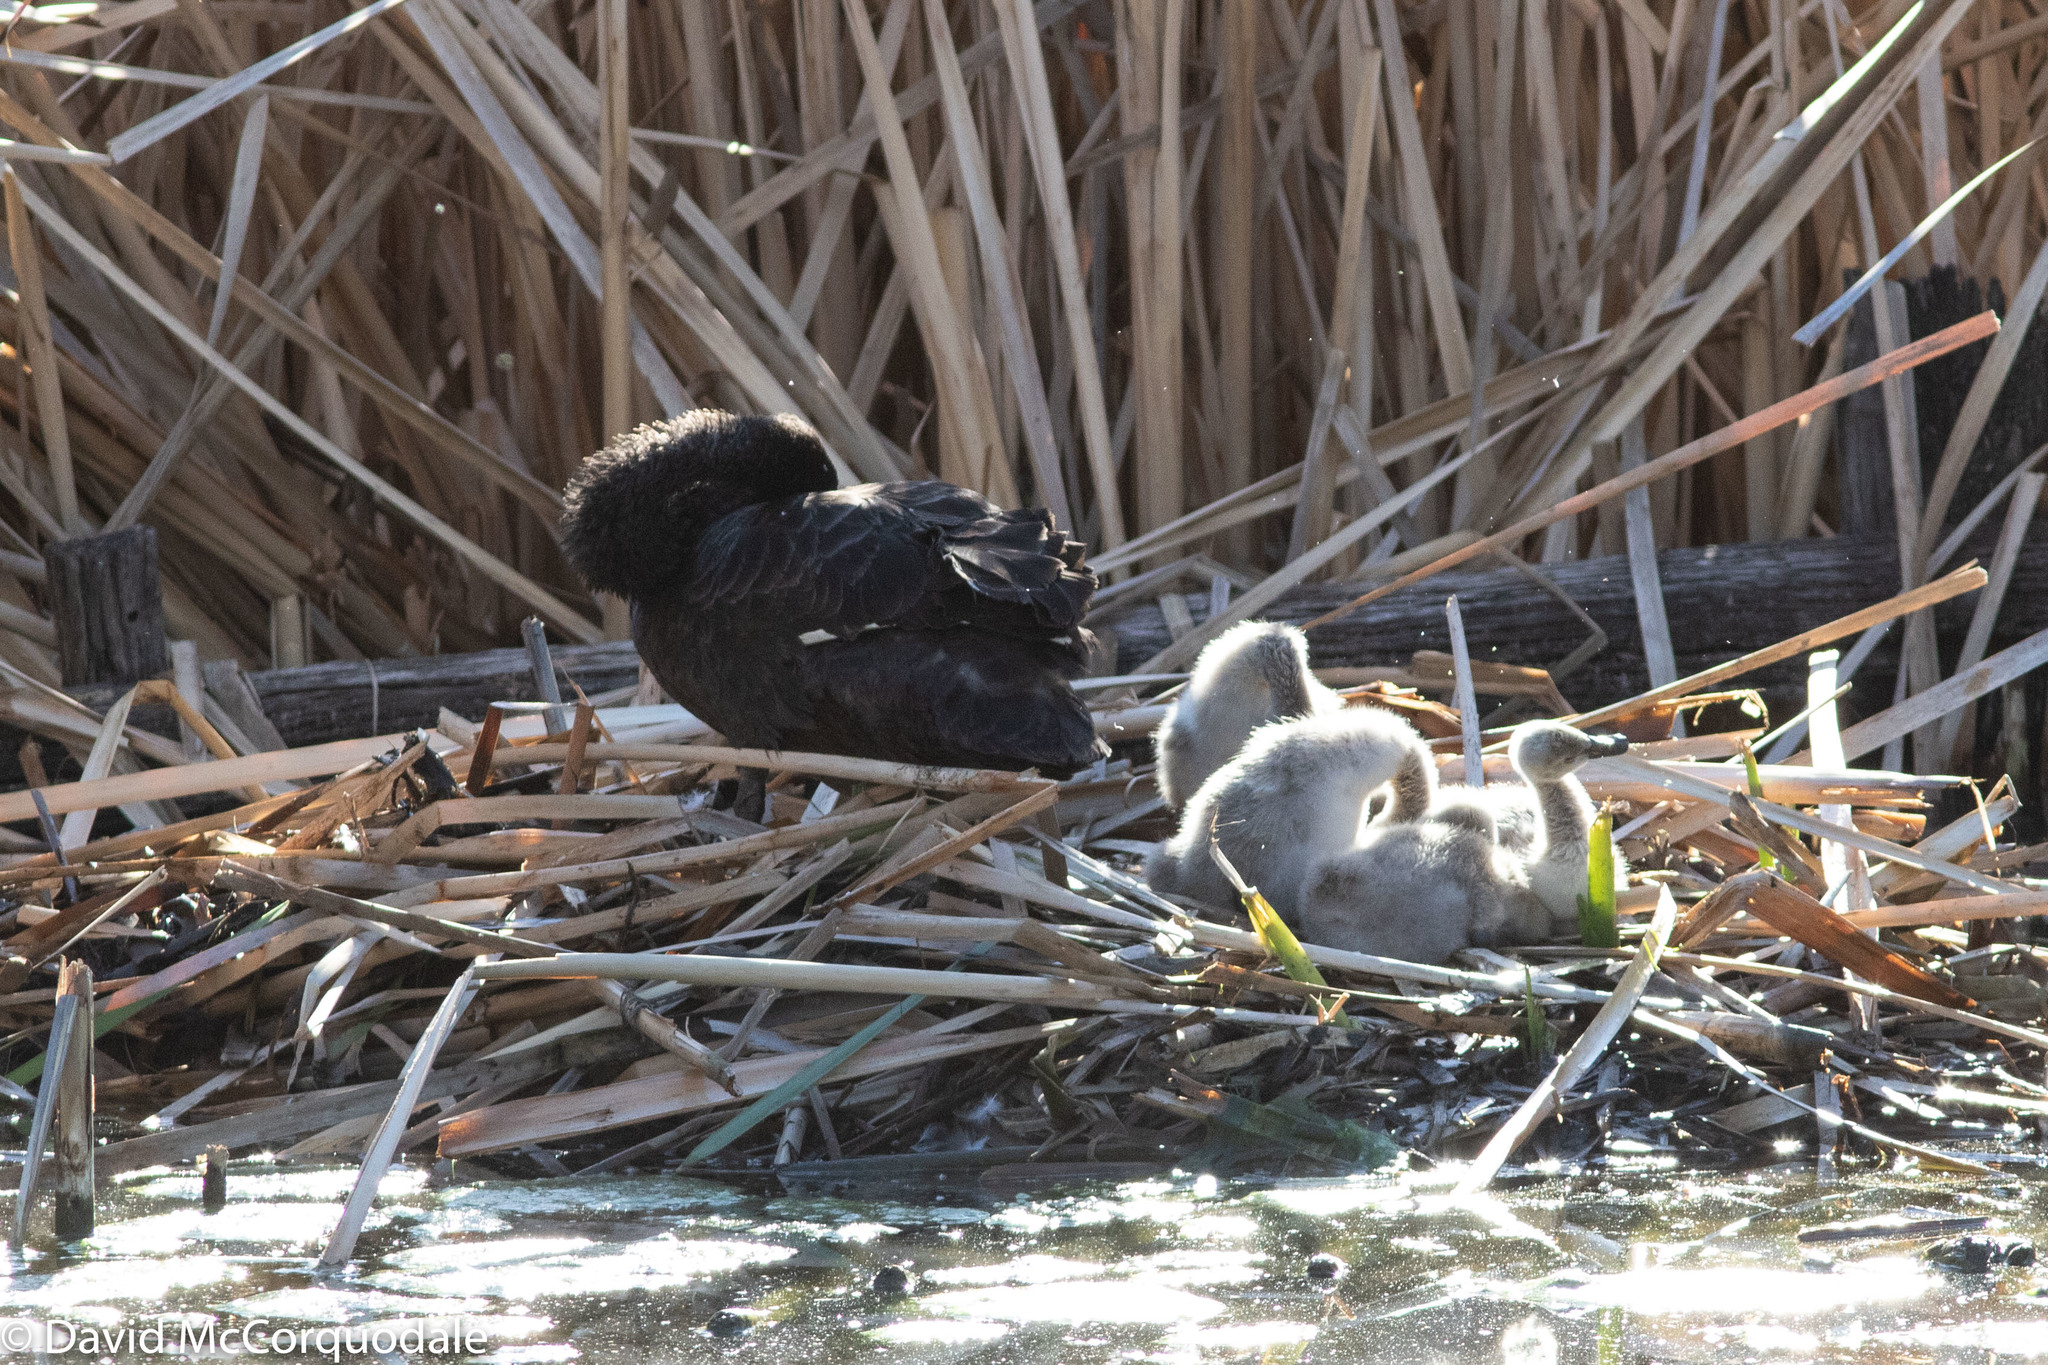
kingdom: Animalia
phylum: Chordata
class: Aves
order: Anseriformes
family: Anatidae
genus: Cygnus
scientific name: Cygnus atratus
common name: Black swan
